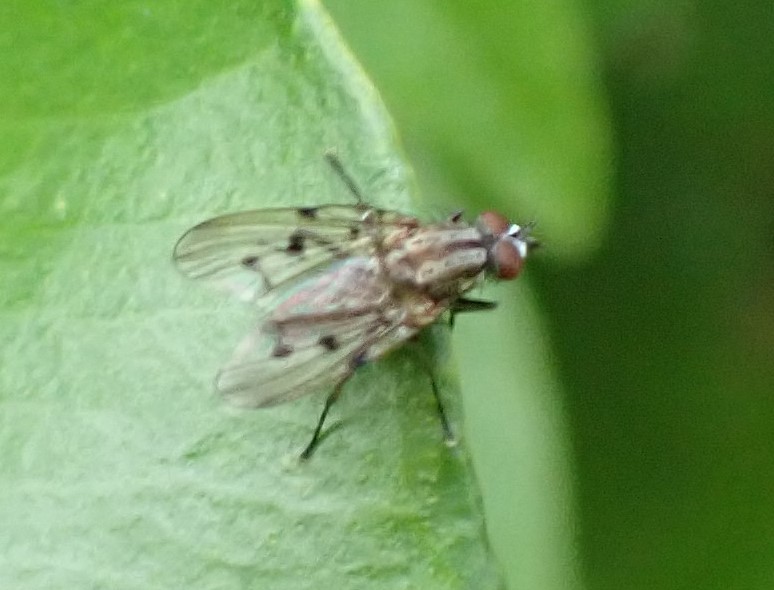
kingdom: Animalia
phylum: Arthropoda
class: Insecta
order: Diptera
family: Anthomyiidae
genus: Anthomyia
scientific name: Anthomyia punctipennis
